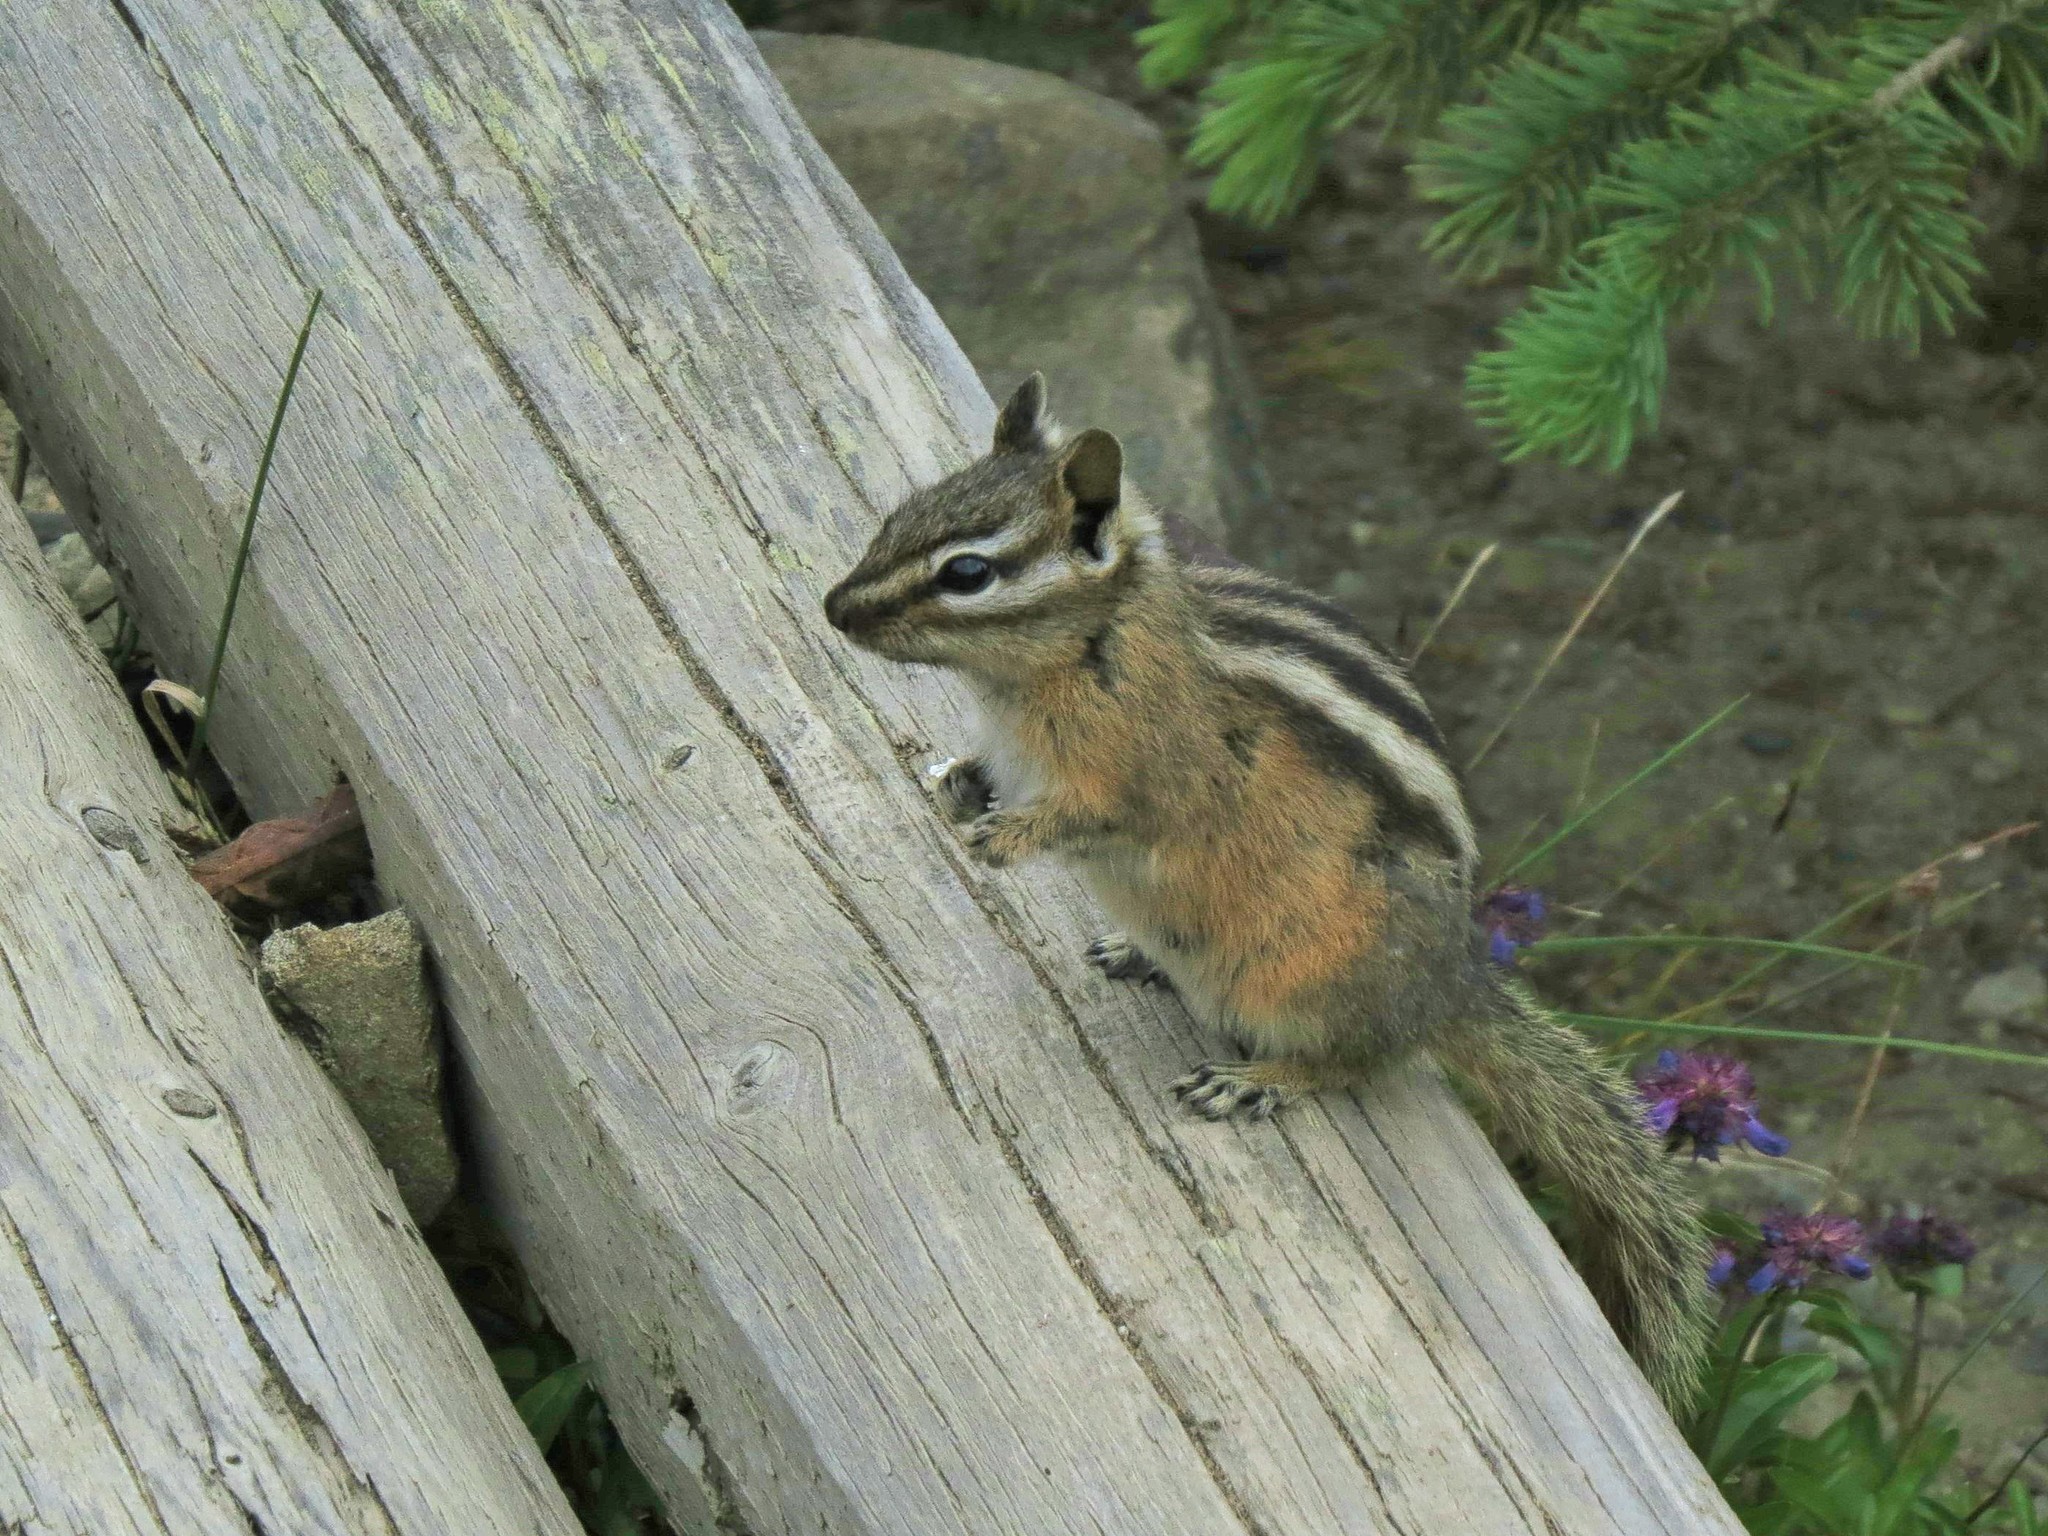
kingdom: Animalia
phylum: Chordata
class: Mammalia
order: Rodentia
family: Sciuridae
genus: Tamias
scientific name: Tamias amoenus
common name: Yellow-pine chipmunk
